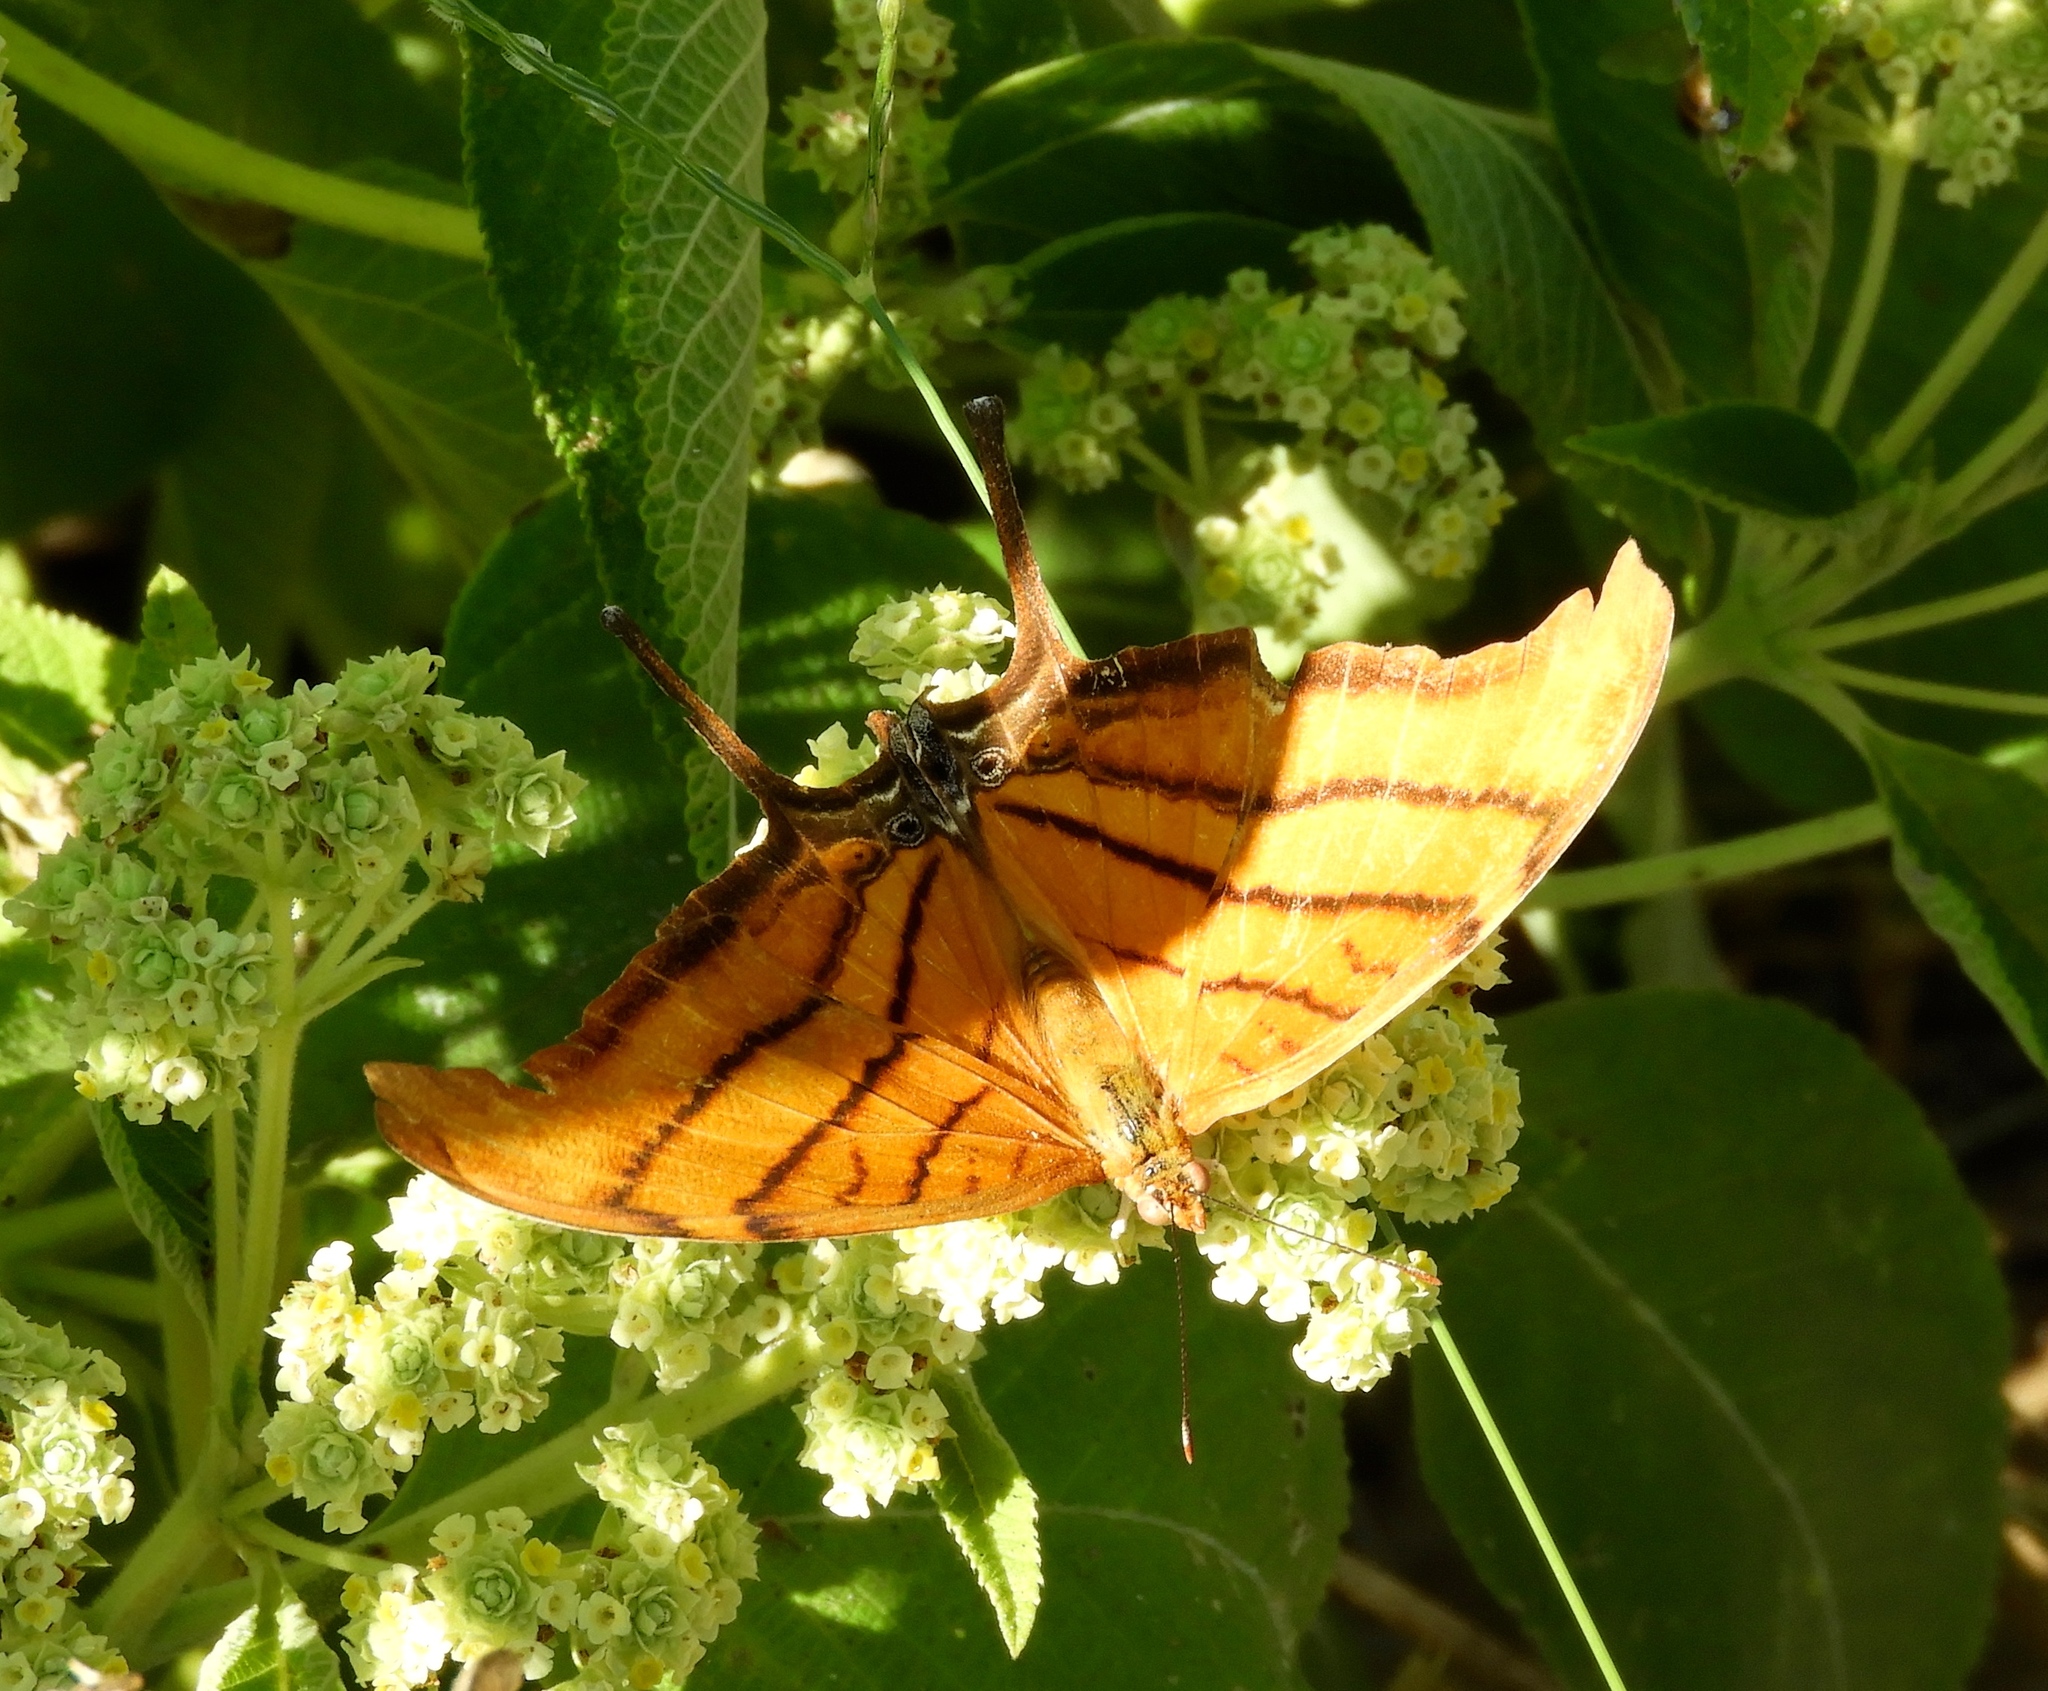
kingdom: Animalia
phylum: Arthropoda
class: Insecta
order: Lepidoptera
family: Nymphalidae
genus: Marpesia
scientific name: Marpesia petreus
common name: Red dagger wing
